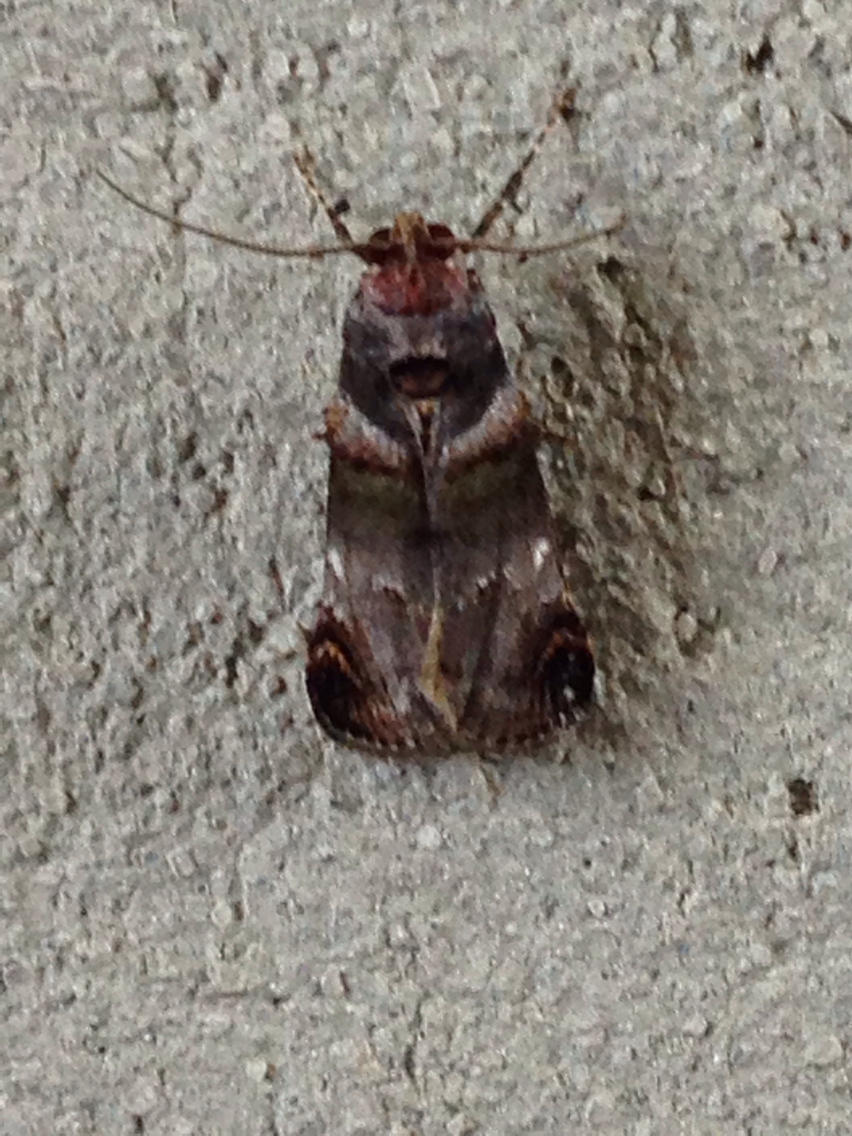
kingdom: Animalia
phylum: Arthropoda
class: Insecta
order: Lepidoptera
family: Pyralidae
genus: Oneida
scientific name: Oneida lunulalis
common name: Orange-tufted oneida moth
